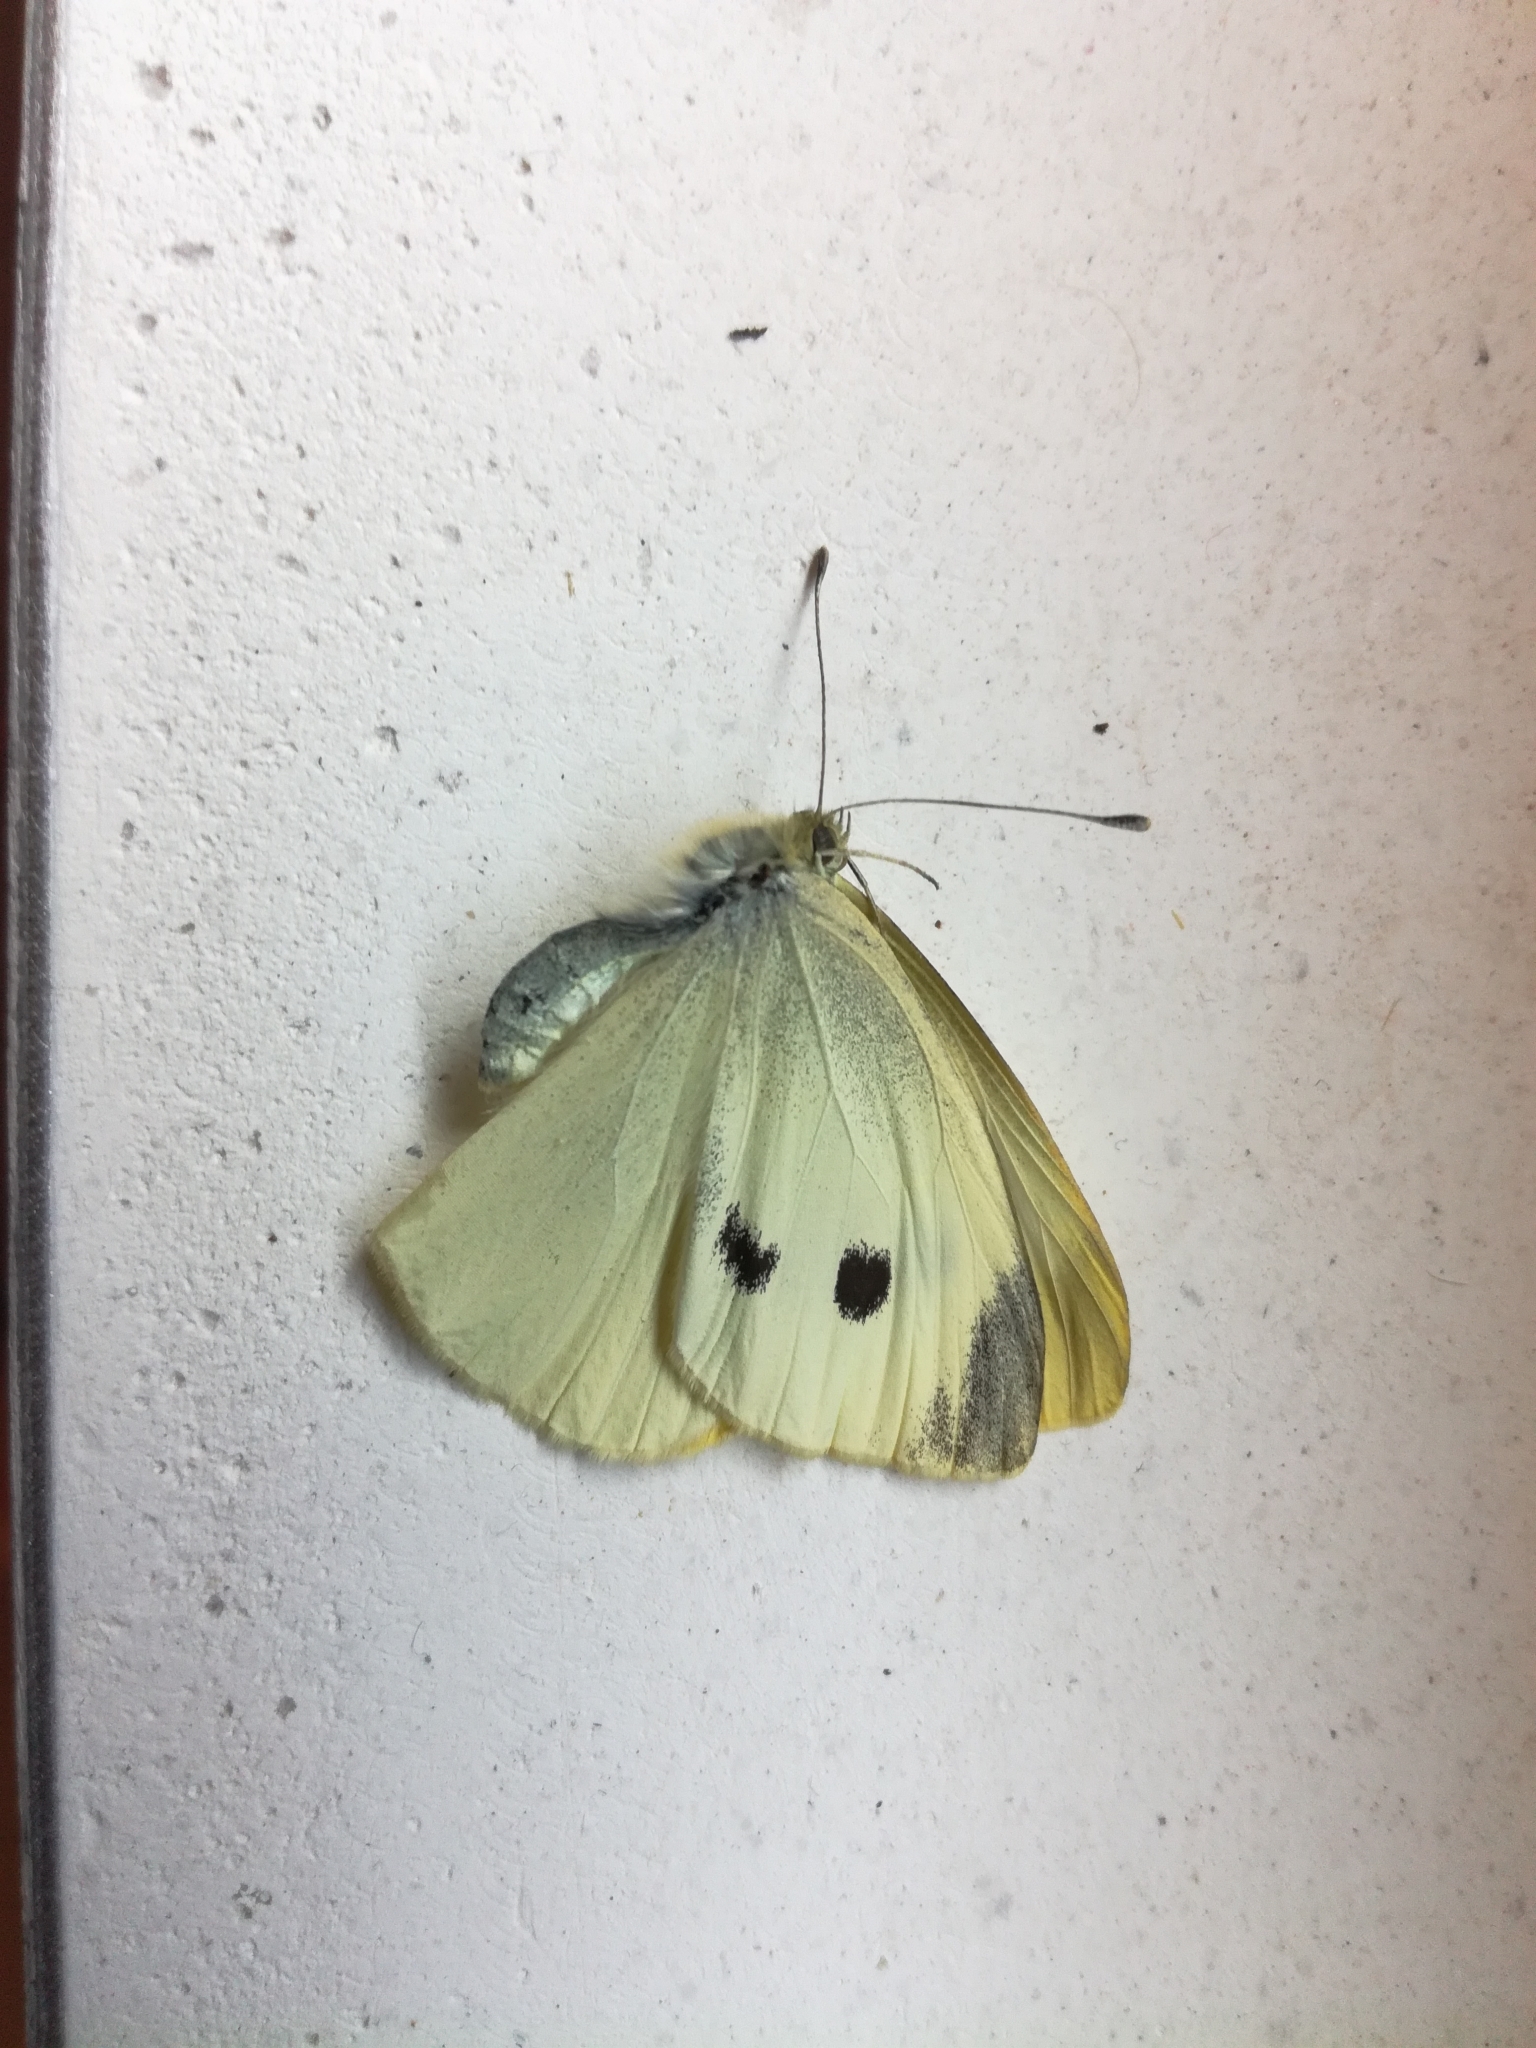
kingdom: Animalia
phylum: Arthropoda
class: Insecta
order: Lepidoptera
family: Pieridae
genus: Pieris
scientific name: Pieris rapae
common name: Small white
